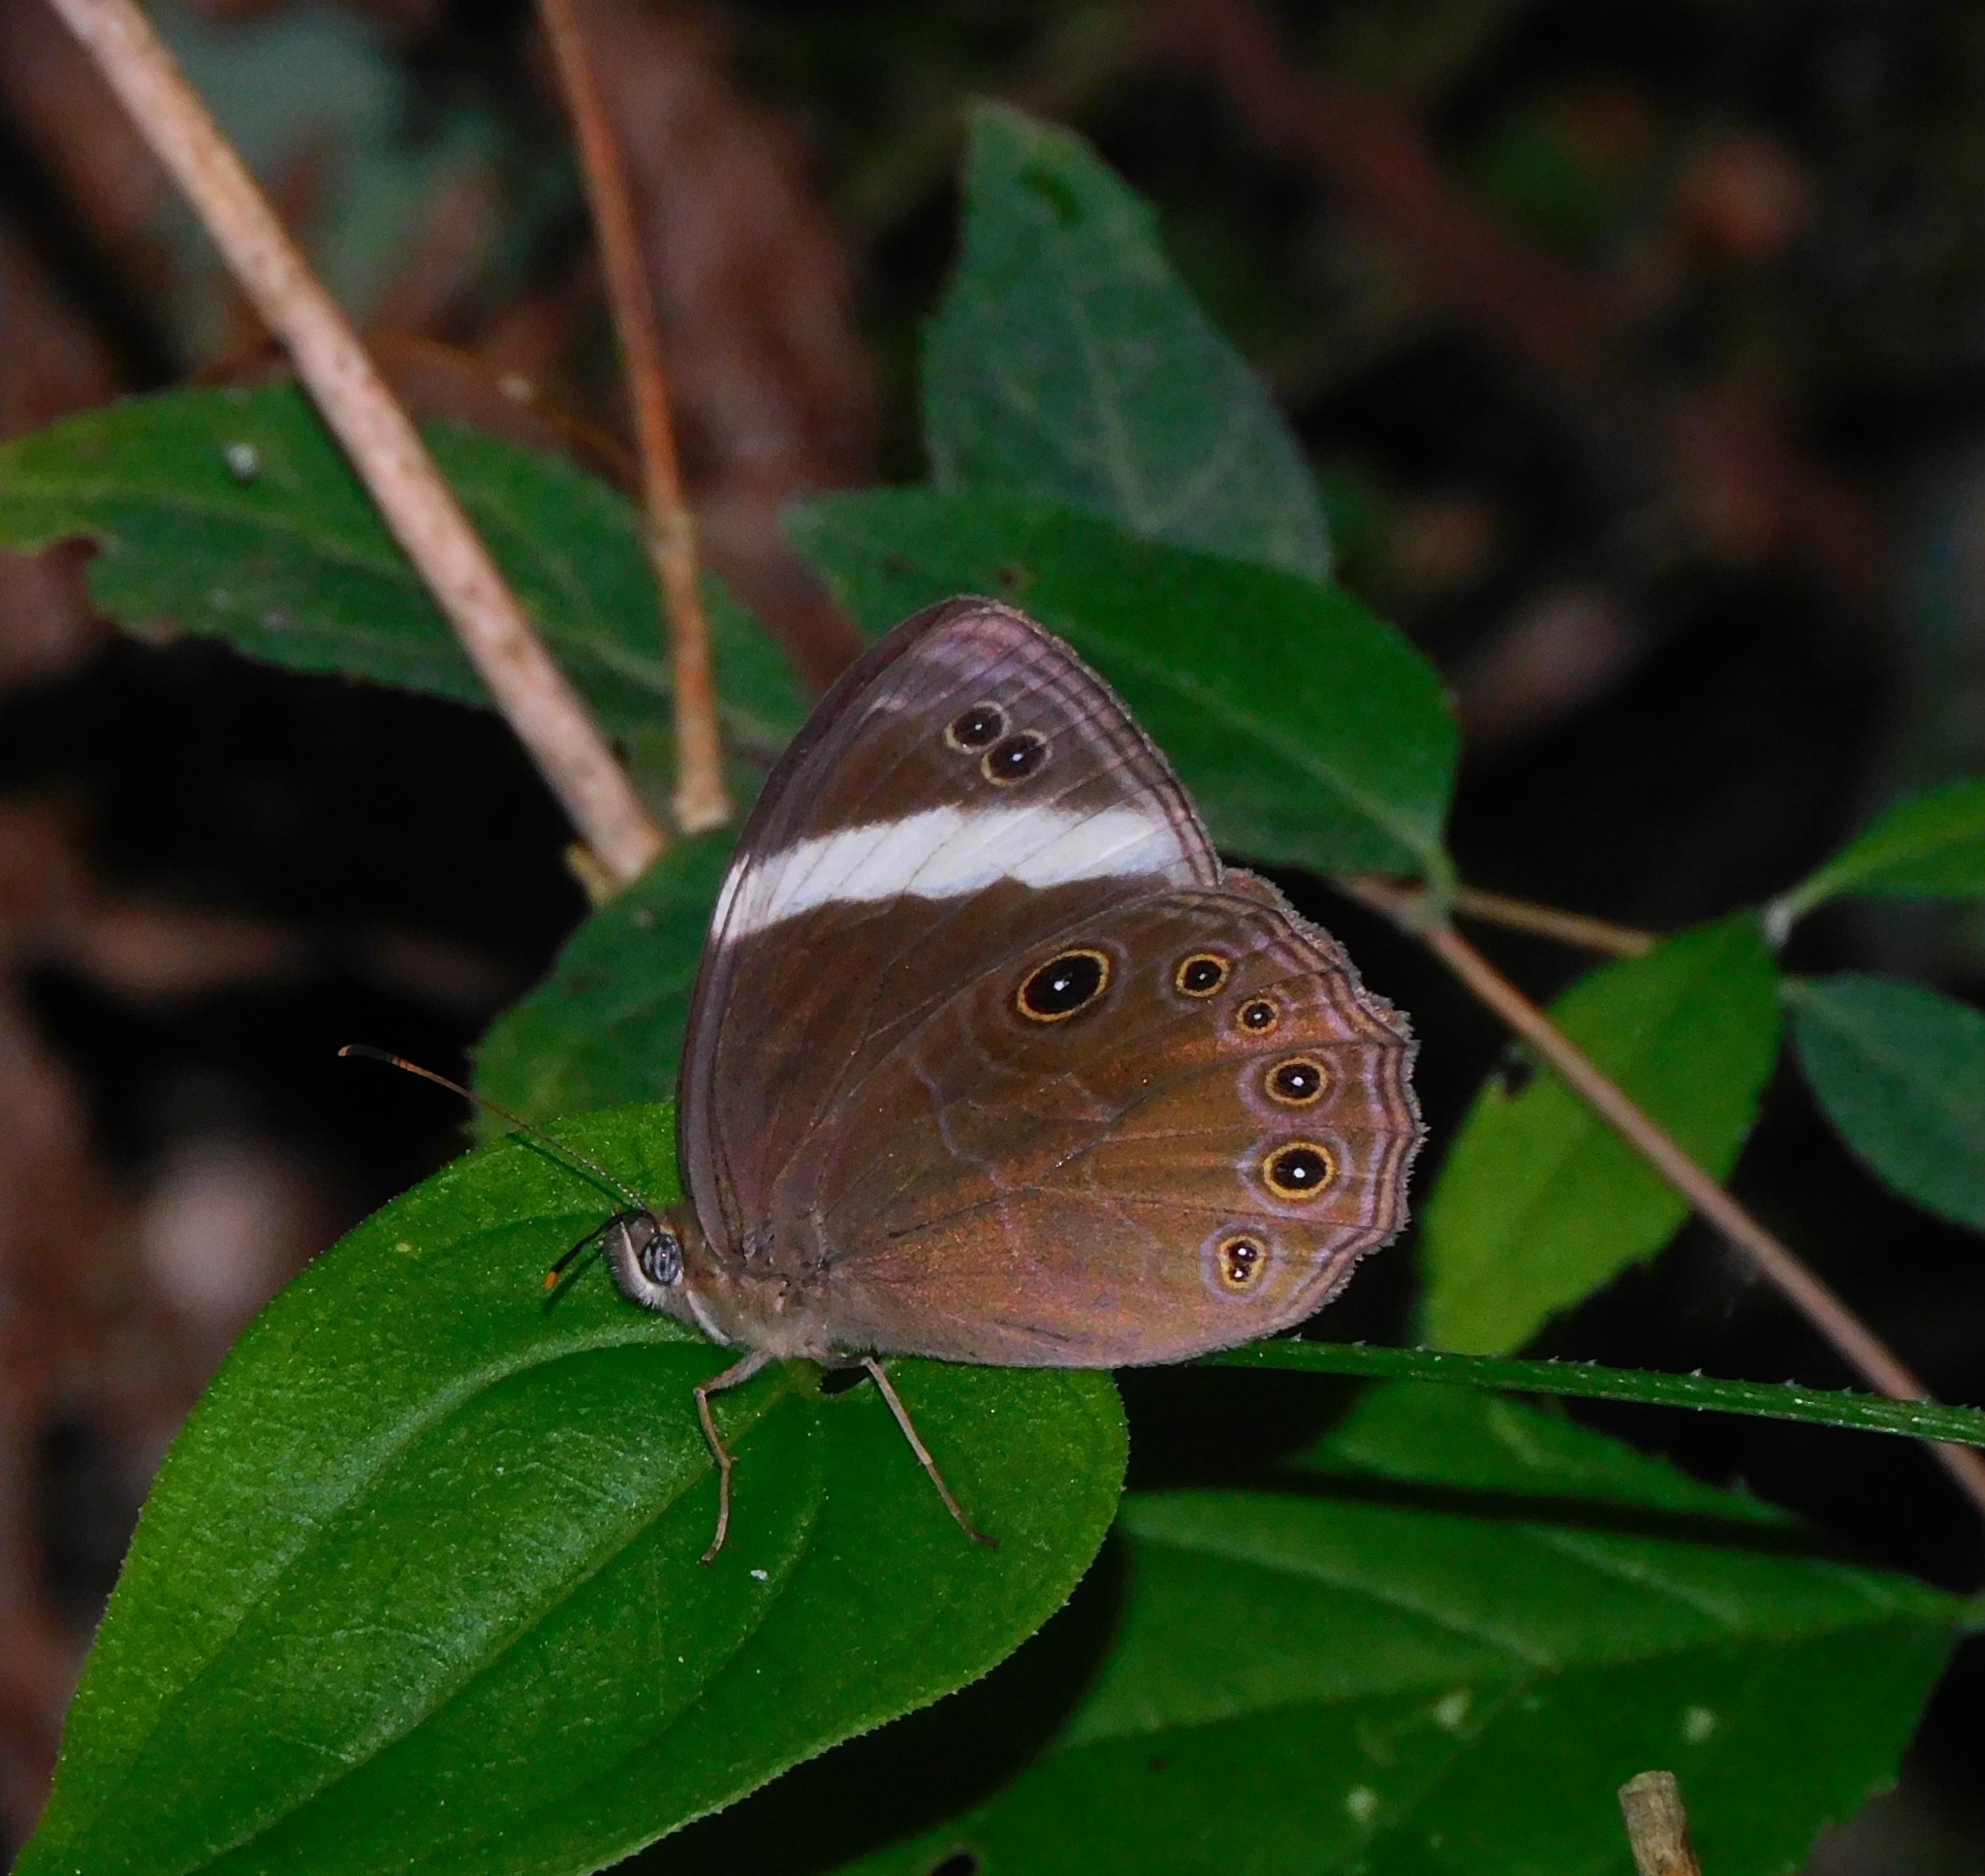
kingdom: Animalia
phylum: Arthropoda
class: Insecta
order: Lepidoptera
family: Nymphalidae
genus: Lethe
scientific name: Lethe verma
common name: Straight-banded treebrown
